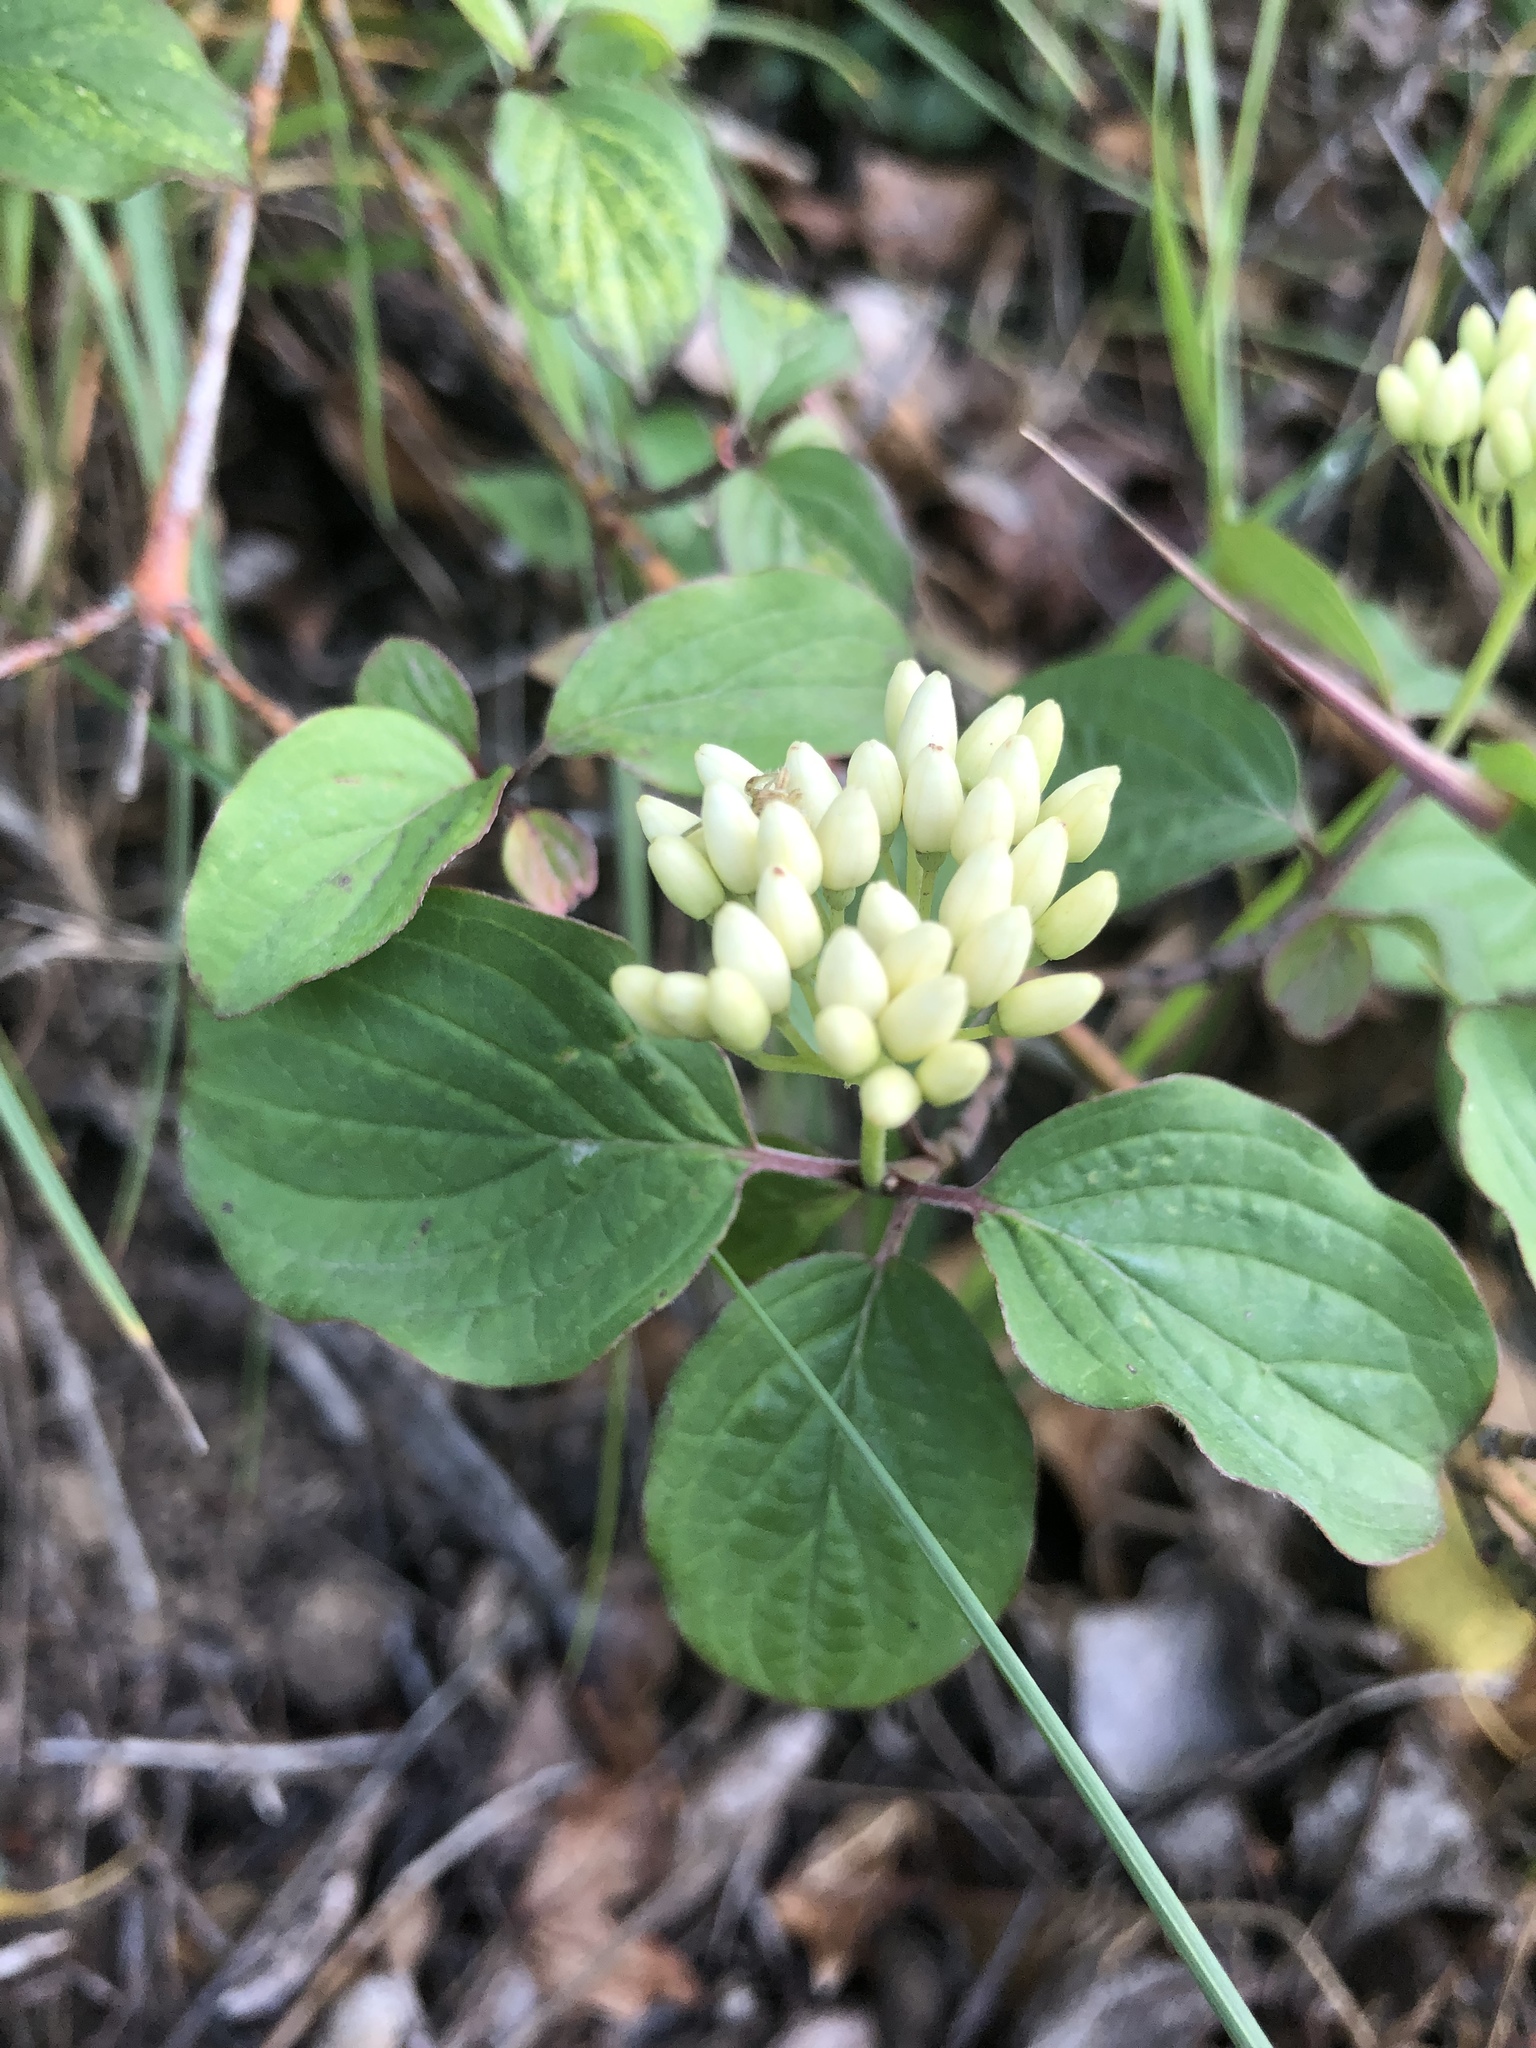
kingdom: Plantae
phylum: Tracheophyta
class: Magnoliopsida
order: Cornales
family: Cornaceae
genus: Cornus
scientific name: Cornus sanguinea
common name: Dogwood
